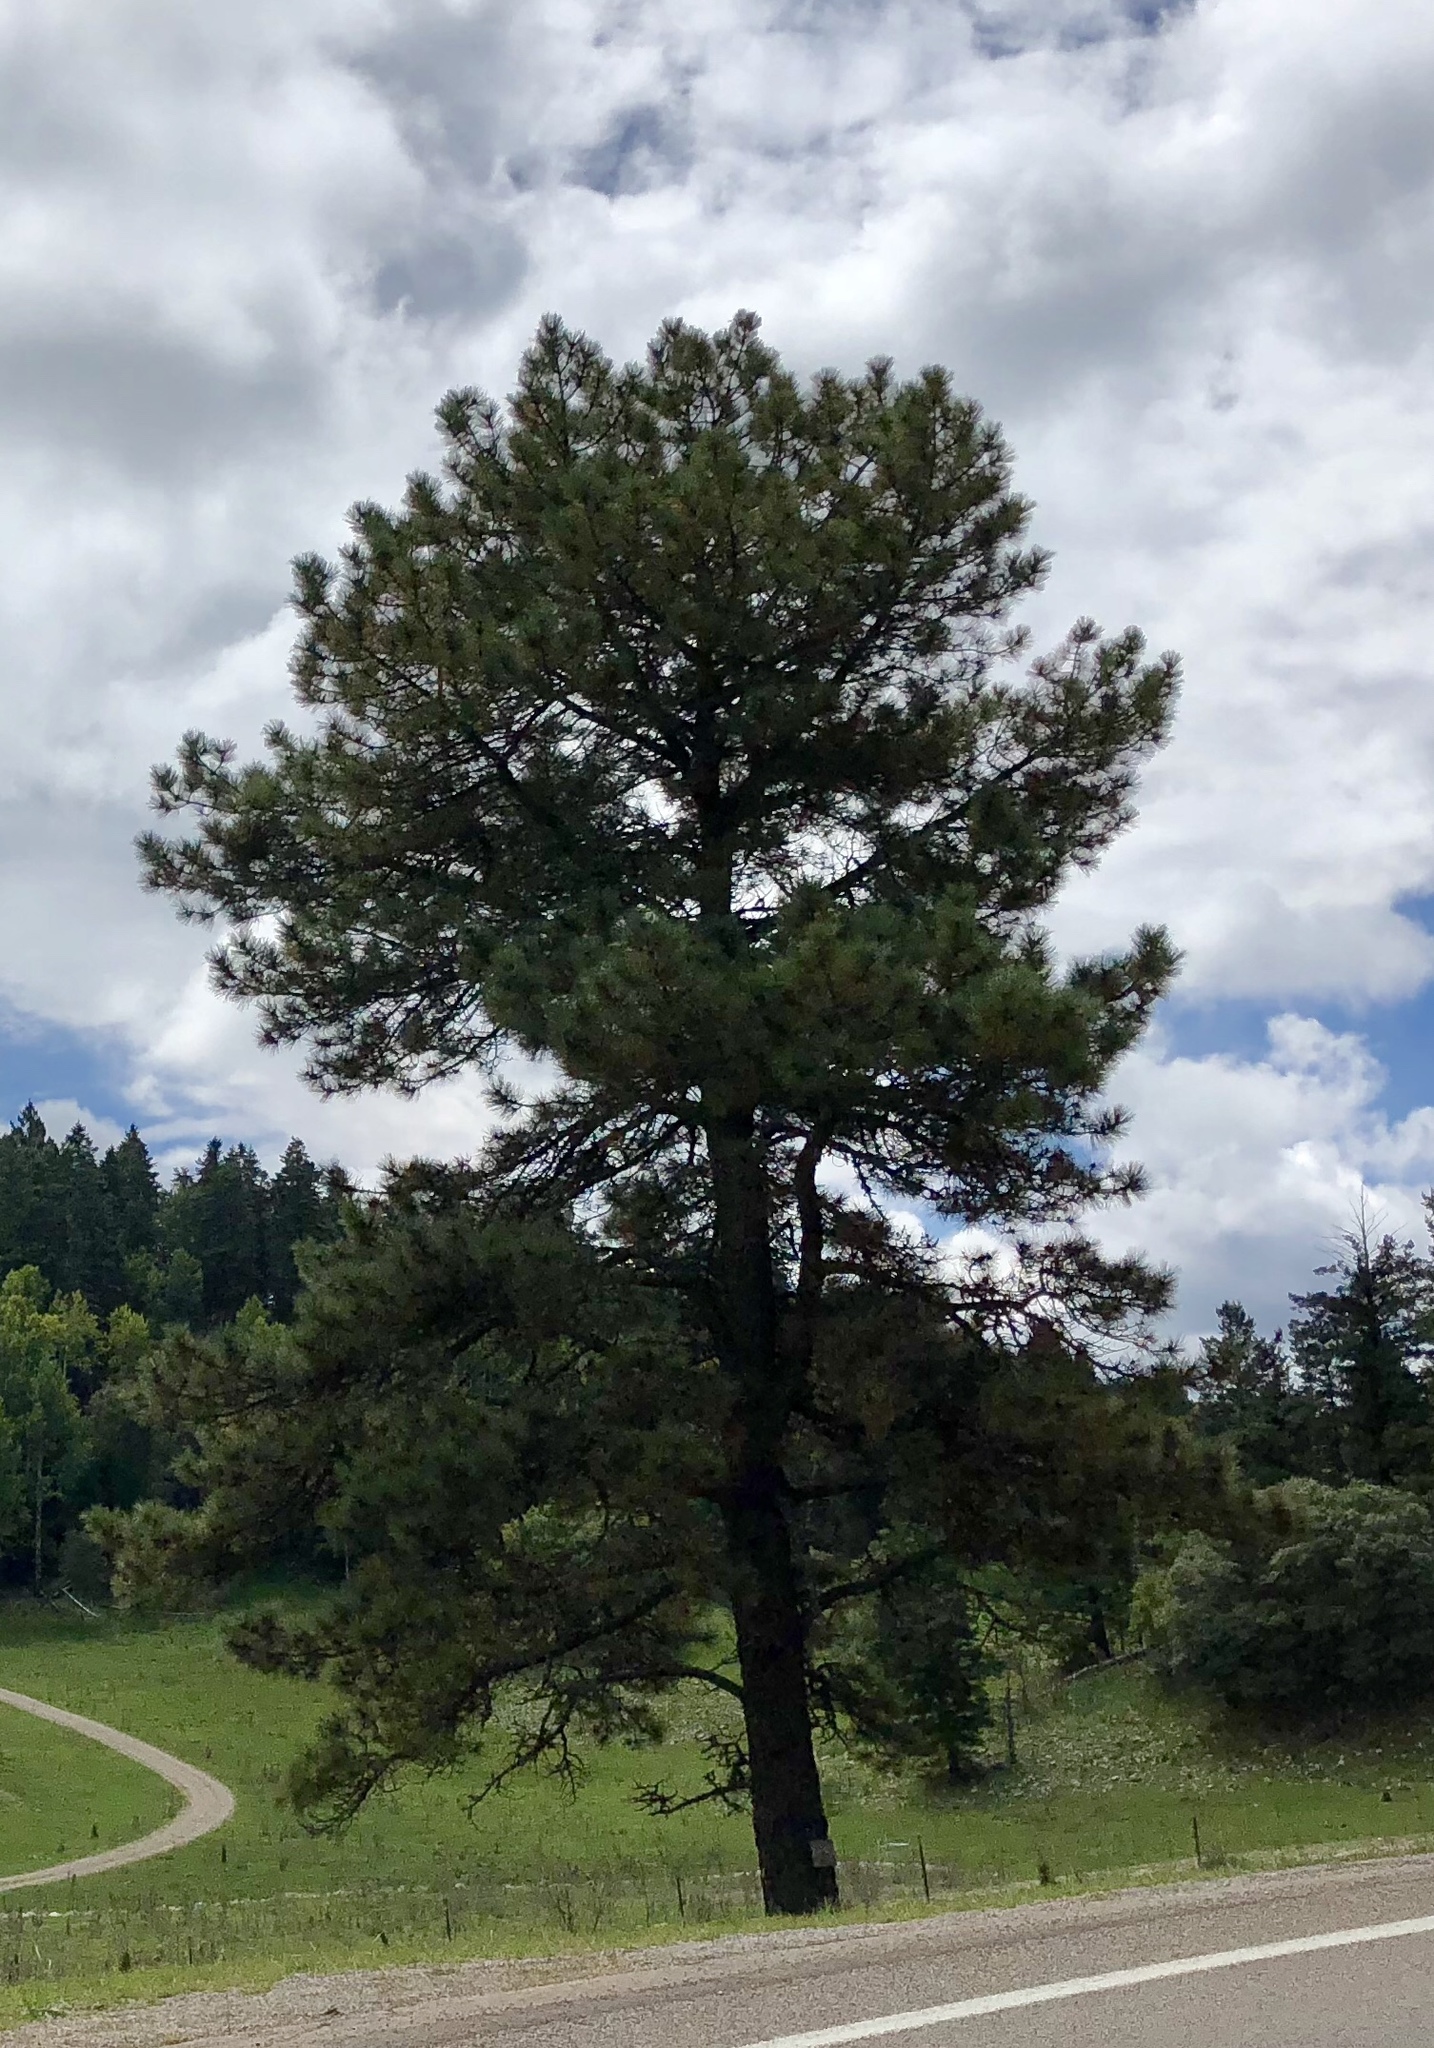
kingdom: Plantae
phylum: Tracheophyta
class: Pinopsida
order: Pinales
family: Pinaceae
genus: Pinus
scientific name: Pinus ponderosa
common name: Western yellow-pine
